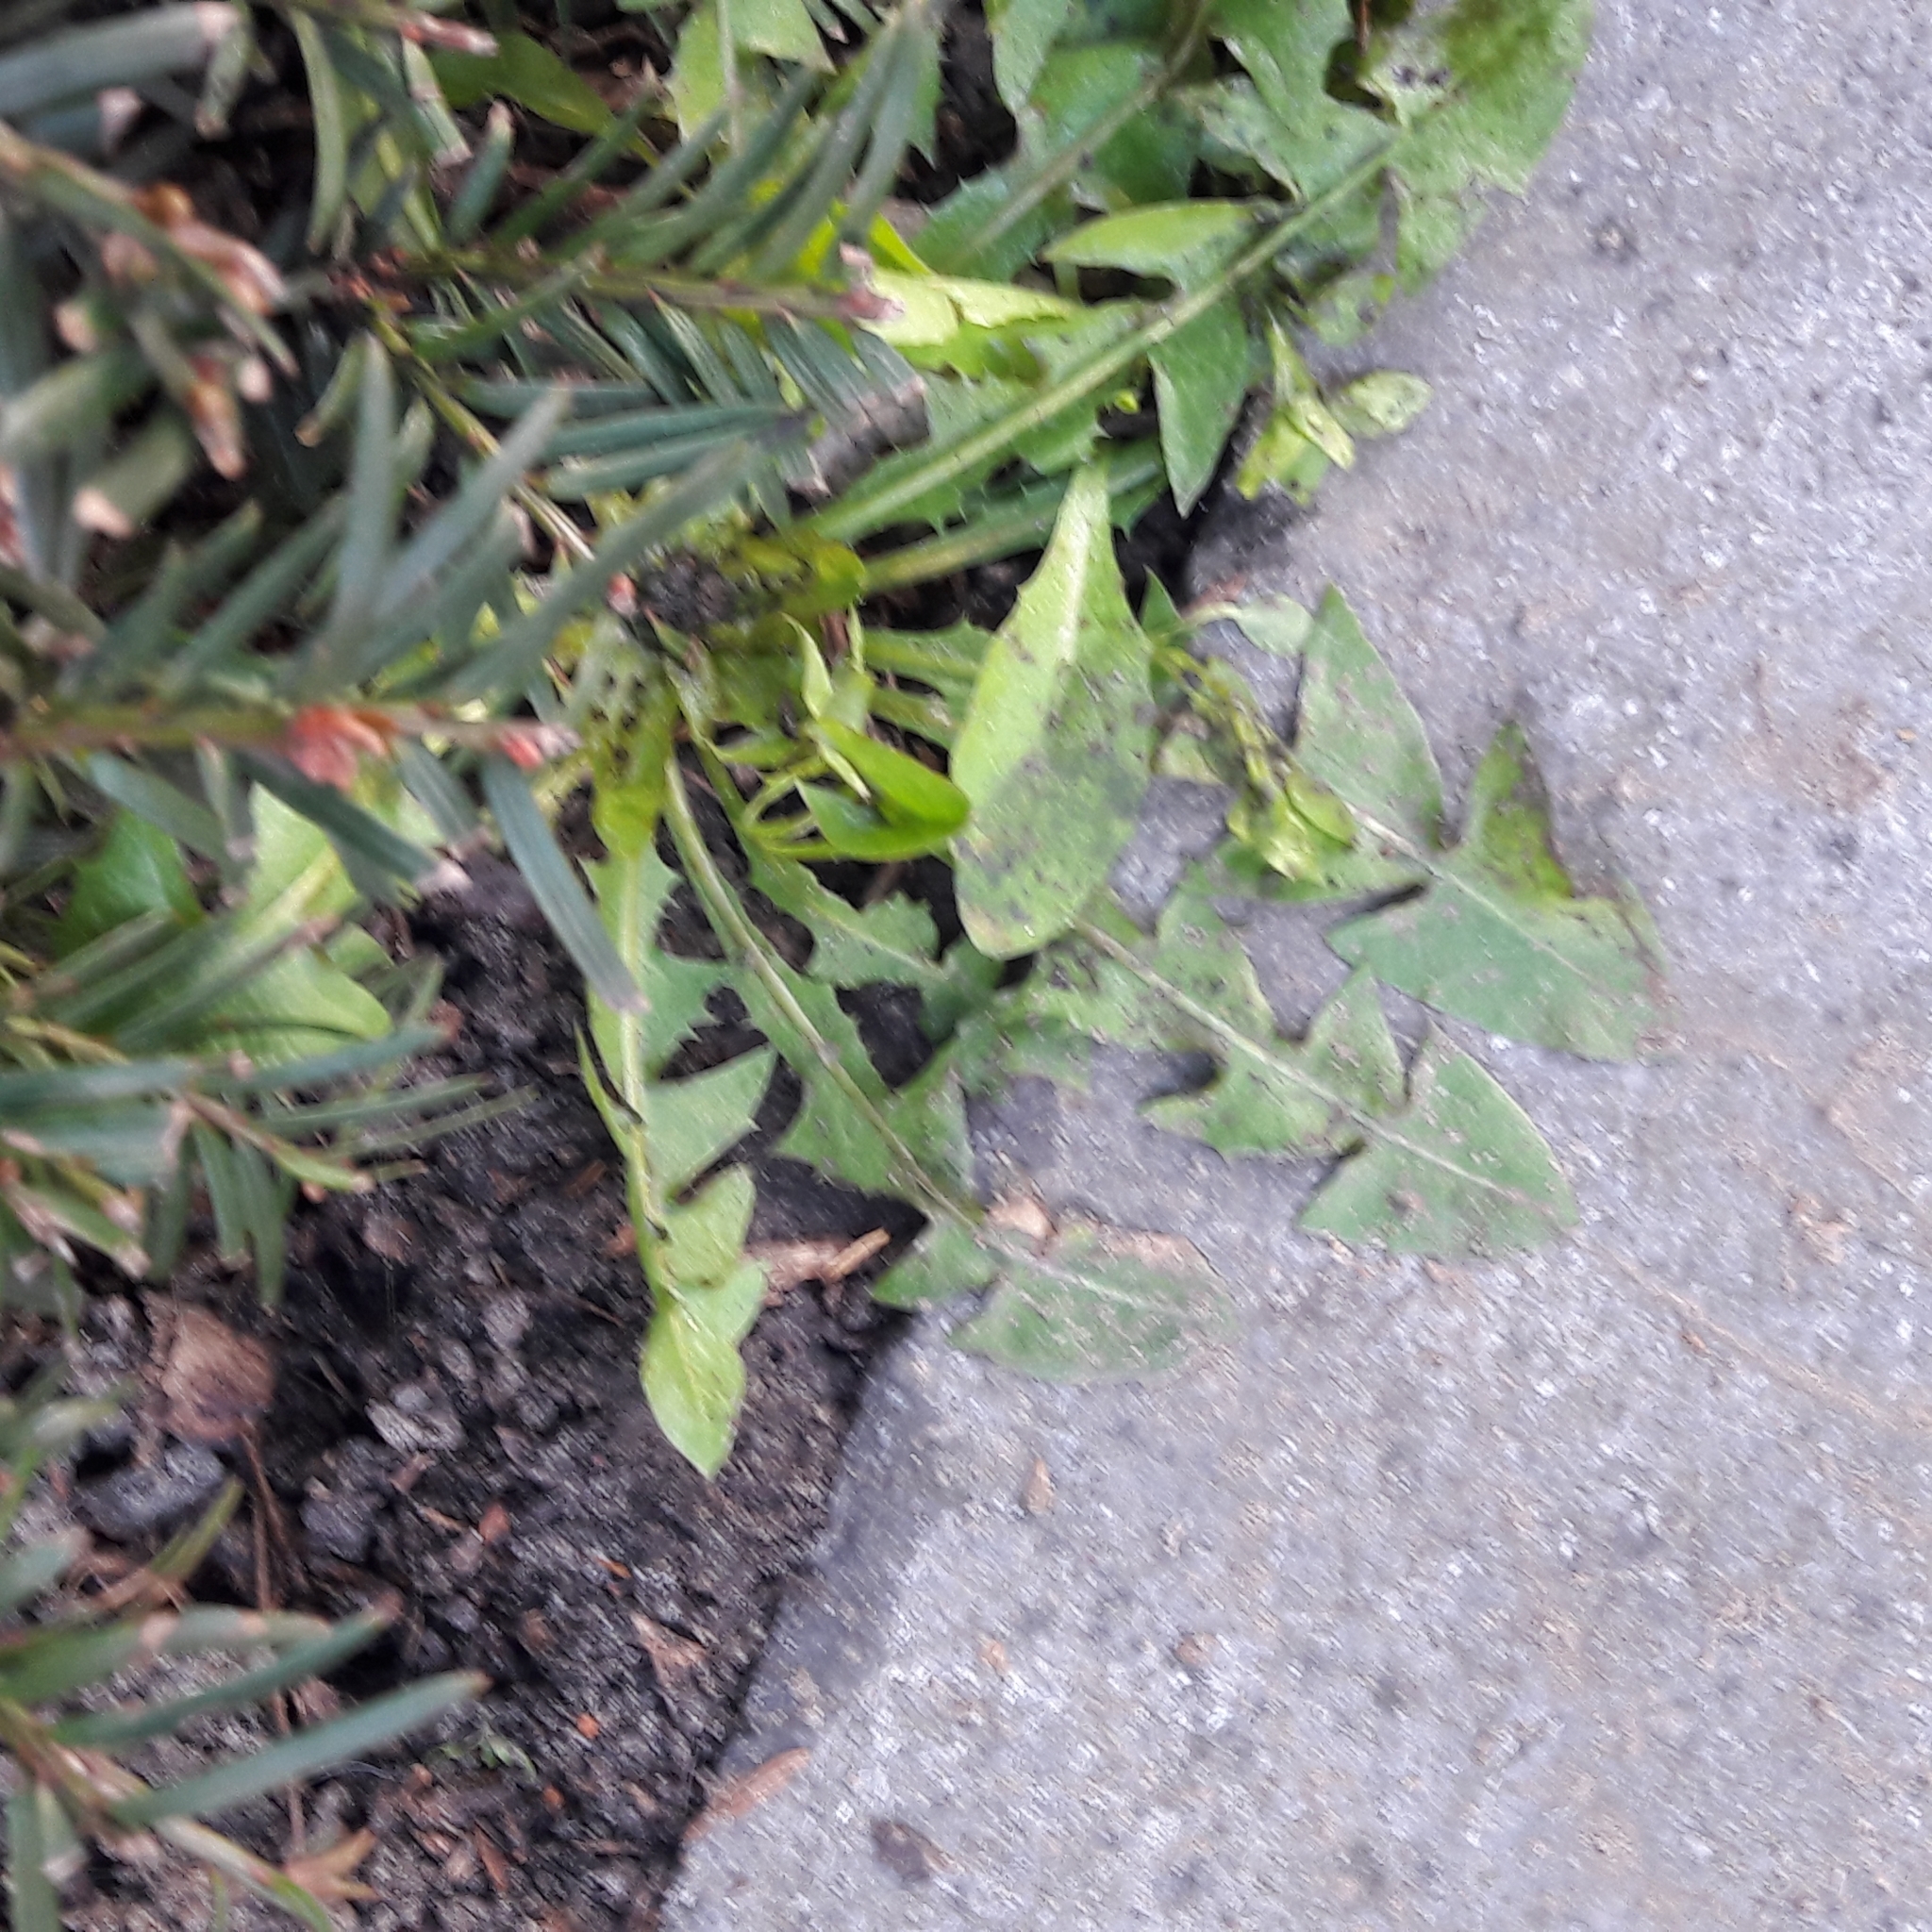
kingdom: Plantae
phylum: Tracheophyta
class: Magnoliopsida
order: Asterales
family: Asteraceae
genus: Taraxacum
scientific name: Taraxacum officinale
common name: Common dandelion
